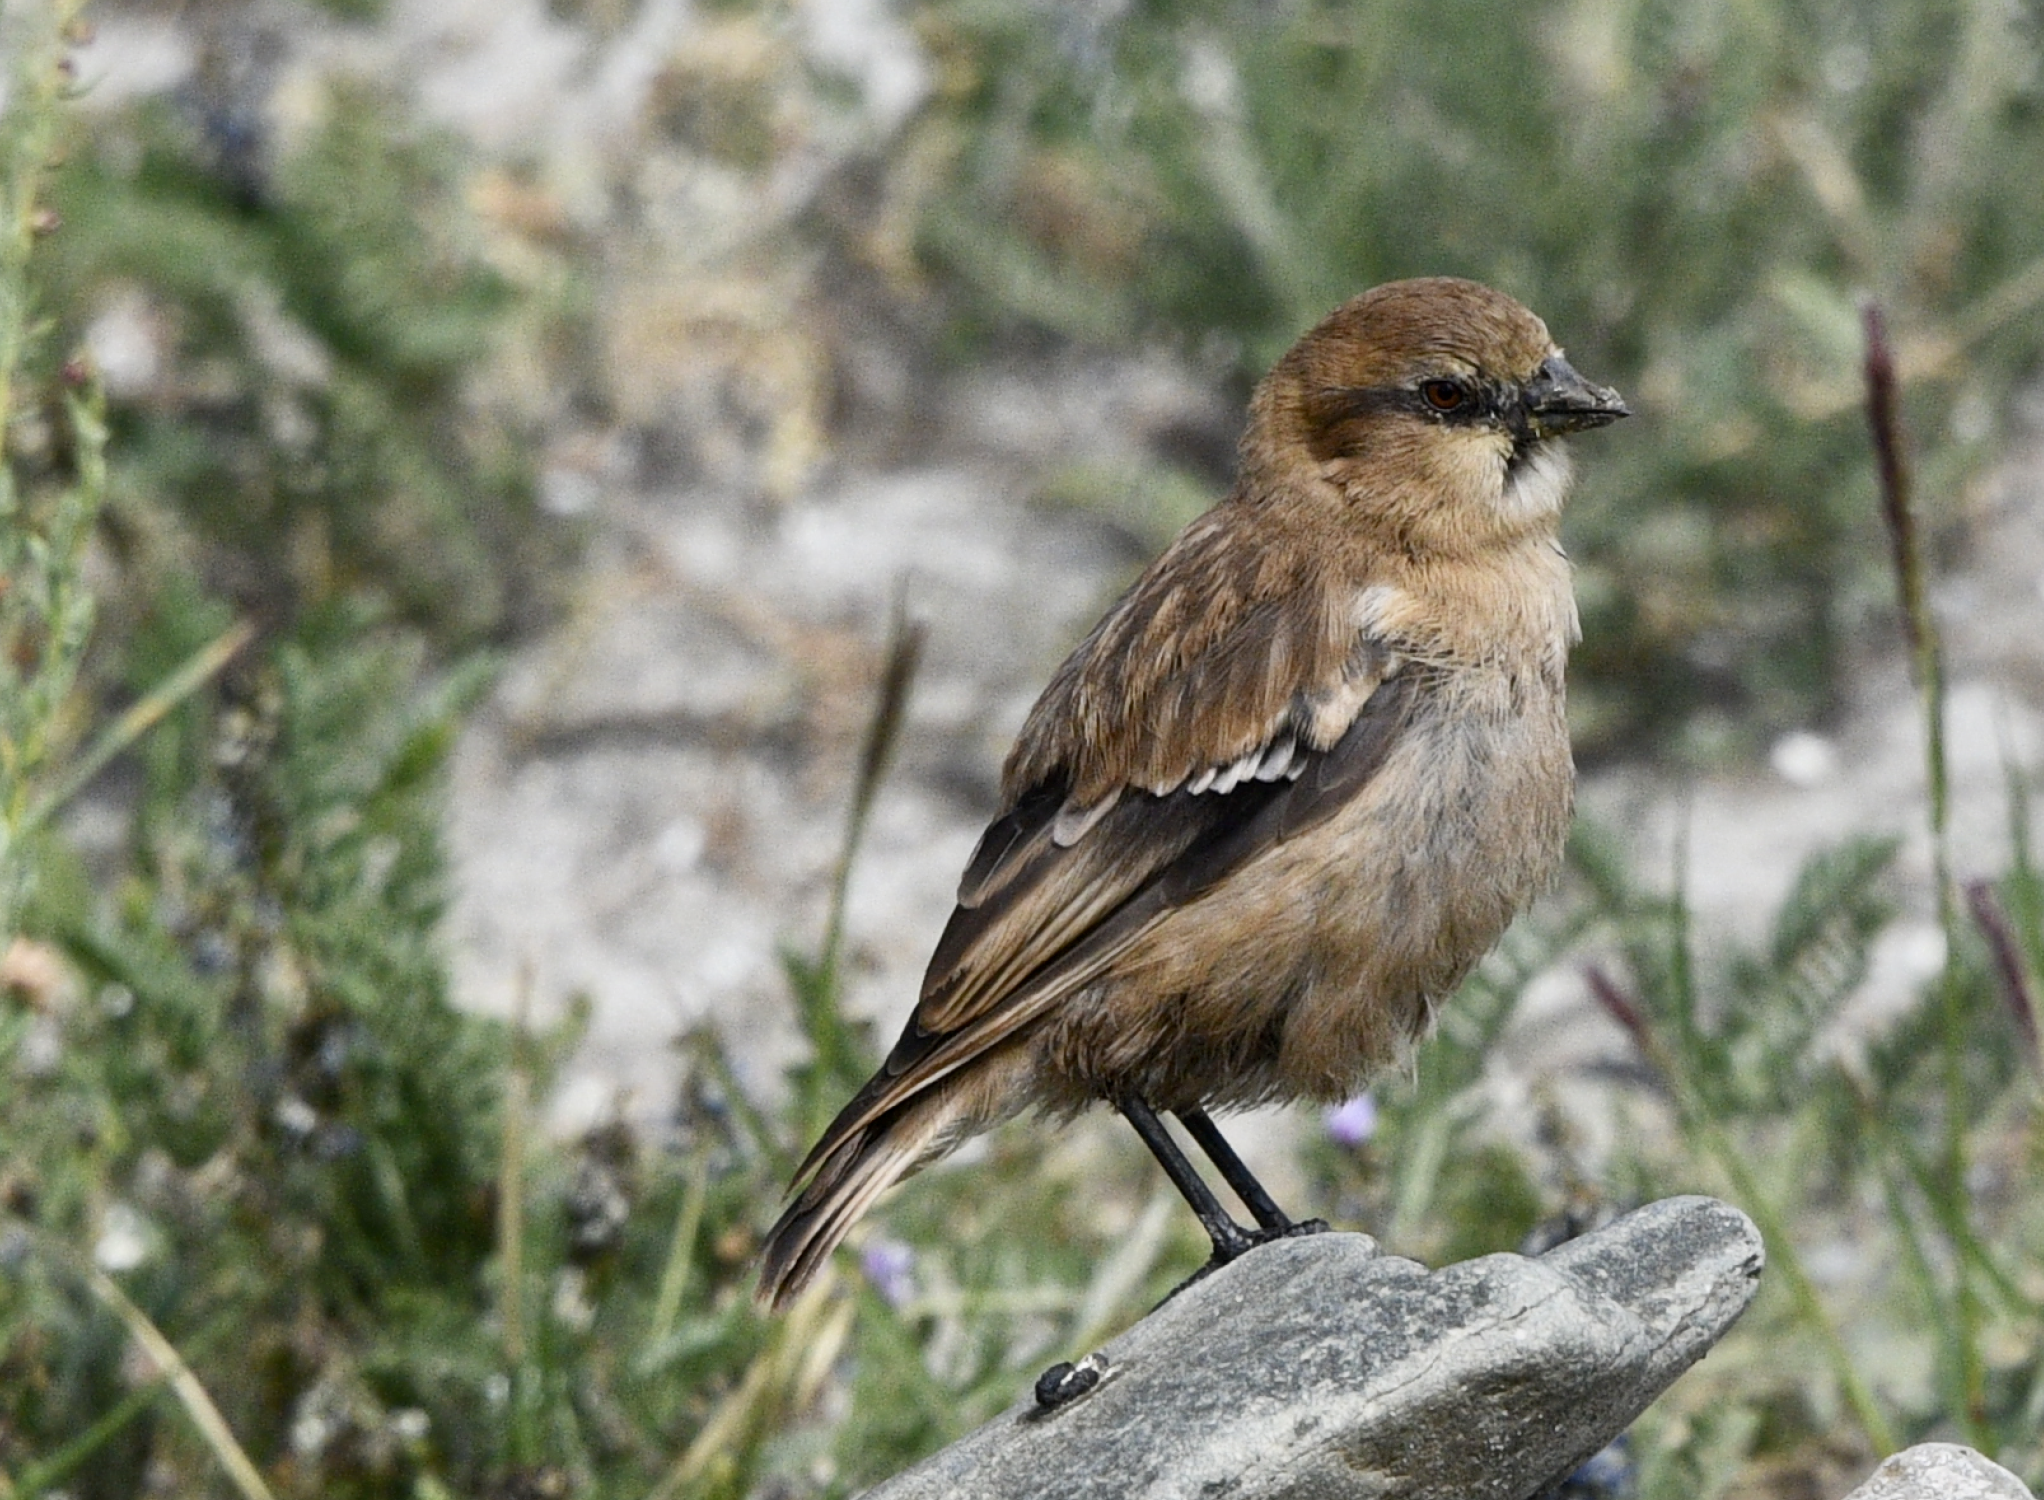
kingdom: Animalia
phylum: Chordata
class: Aves
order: Passeriformes
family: Passeridae
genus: Pyrgilauda
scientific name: Pyrgilauda ruficollis
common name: Rufous-necked snowfinch
